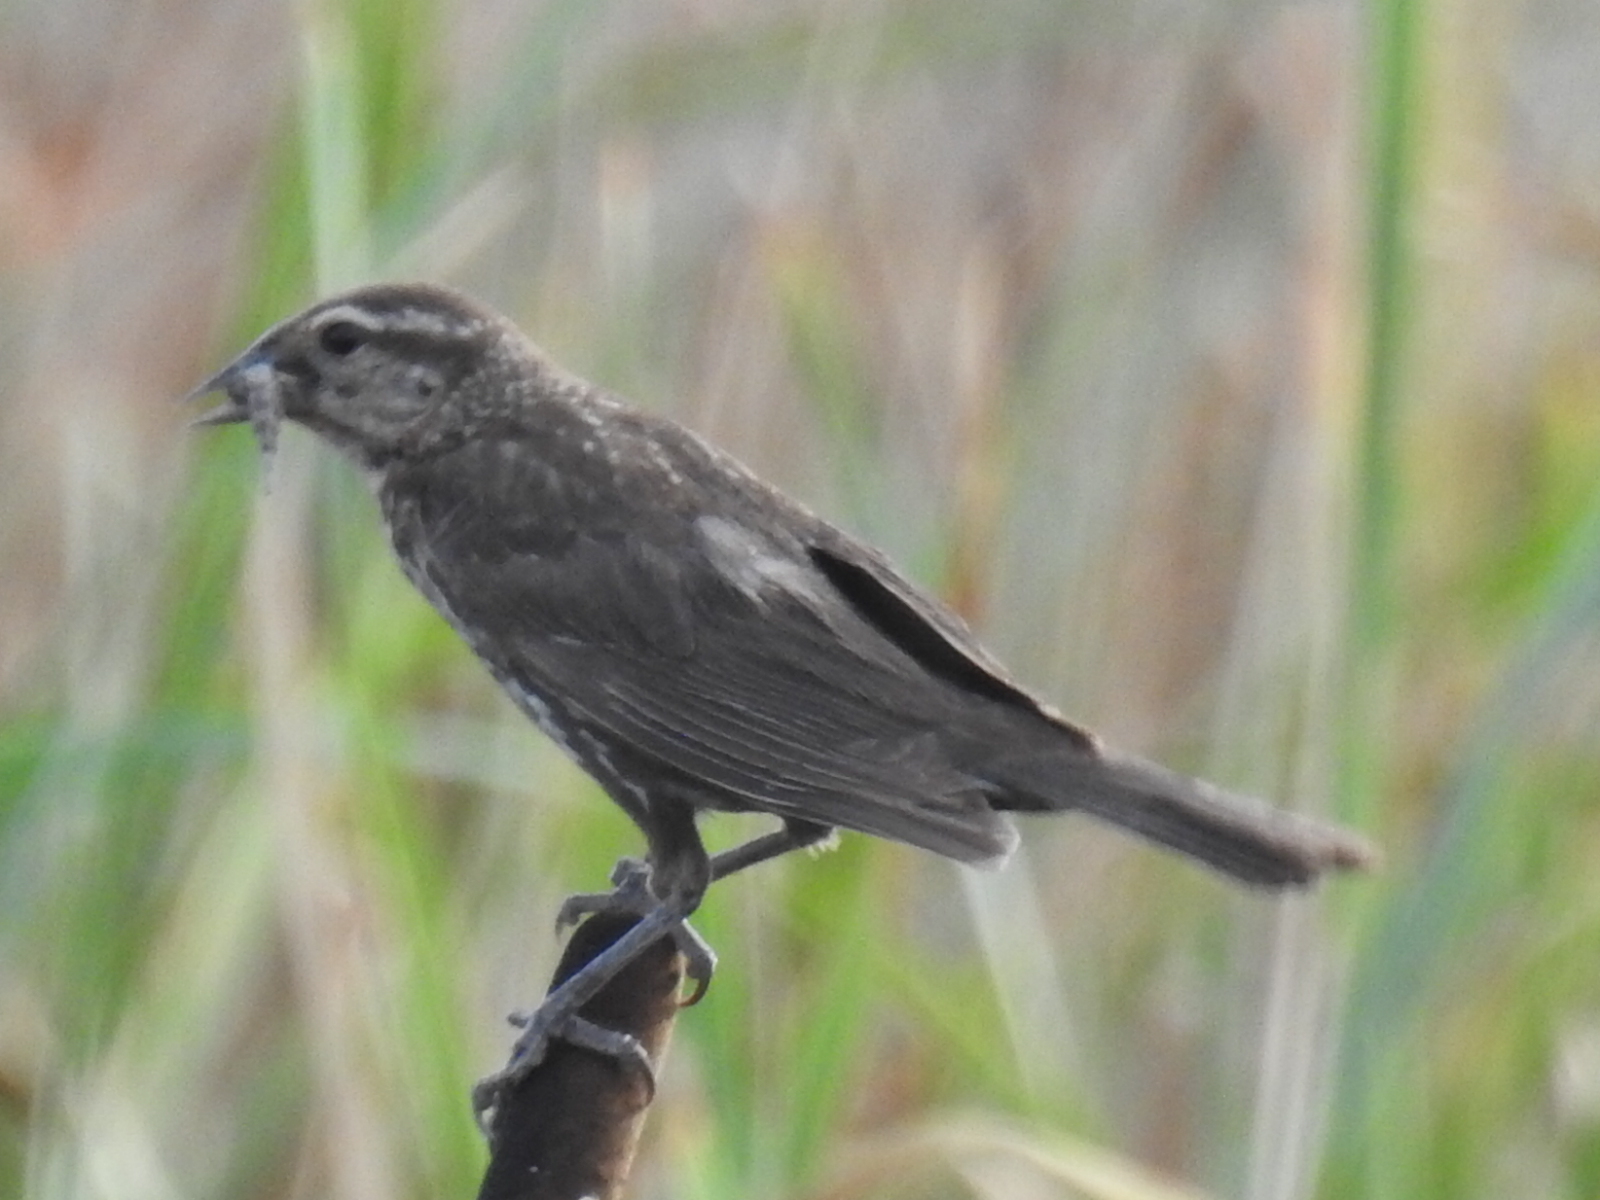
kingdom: Animalia
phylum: Chordata
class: Aves
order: Passeriformes
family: Icteridae
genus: Agelaius
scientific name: Agelaius phoeniceus
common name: Red-winged blackbird
